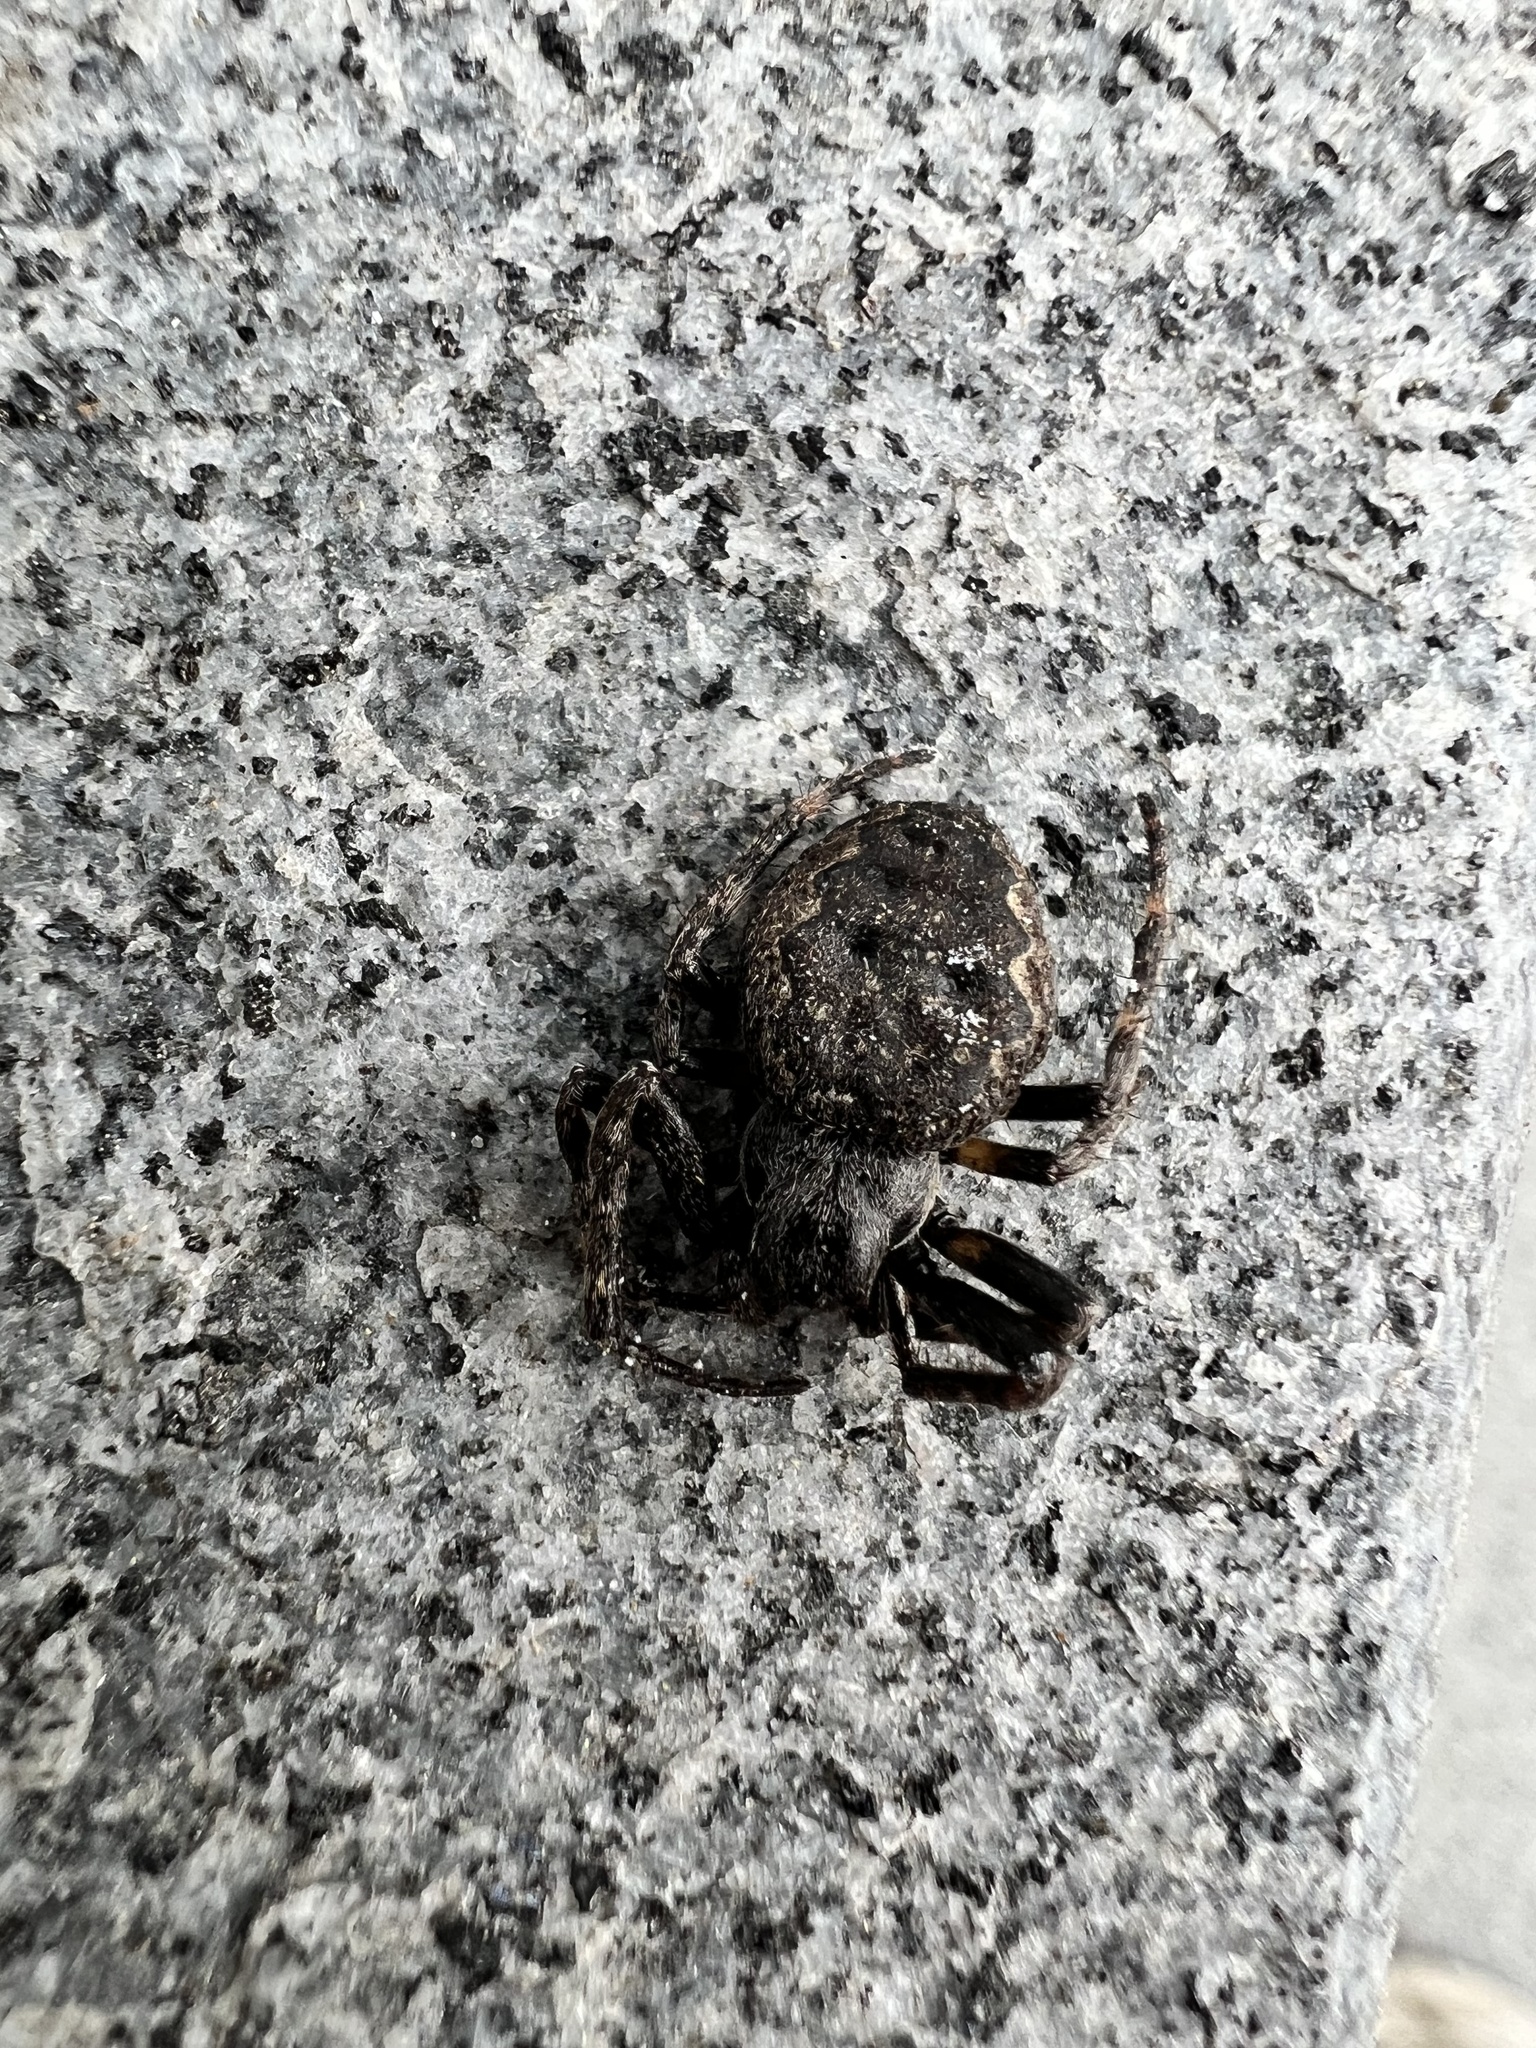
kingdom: Animalia
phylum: Arthropoda
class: Arachnida
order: Araneae
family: Araneidae
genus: Nuctenea
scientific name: Nuctenea umbratica
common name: Toad spider
